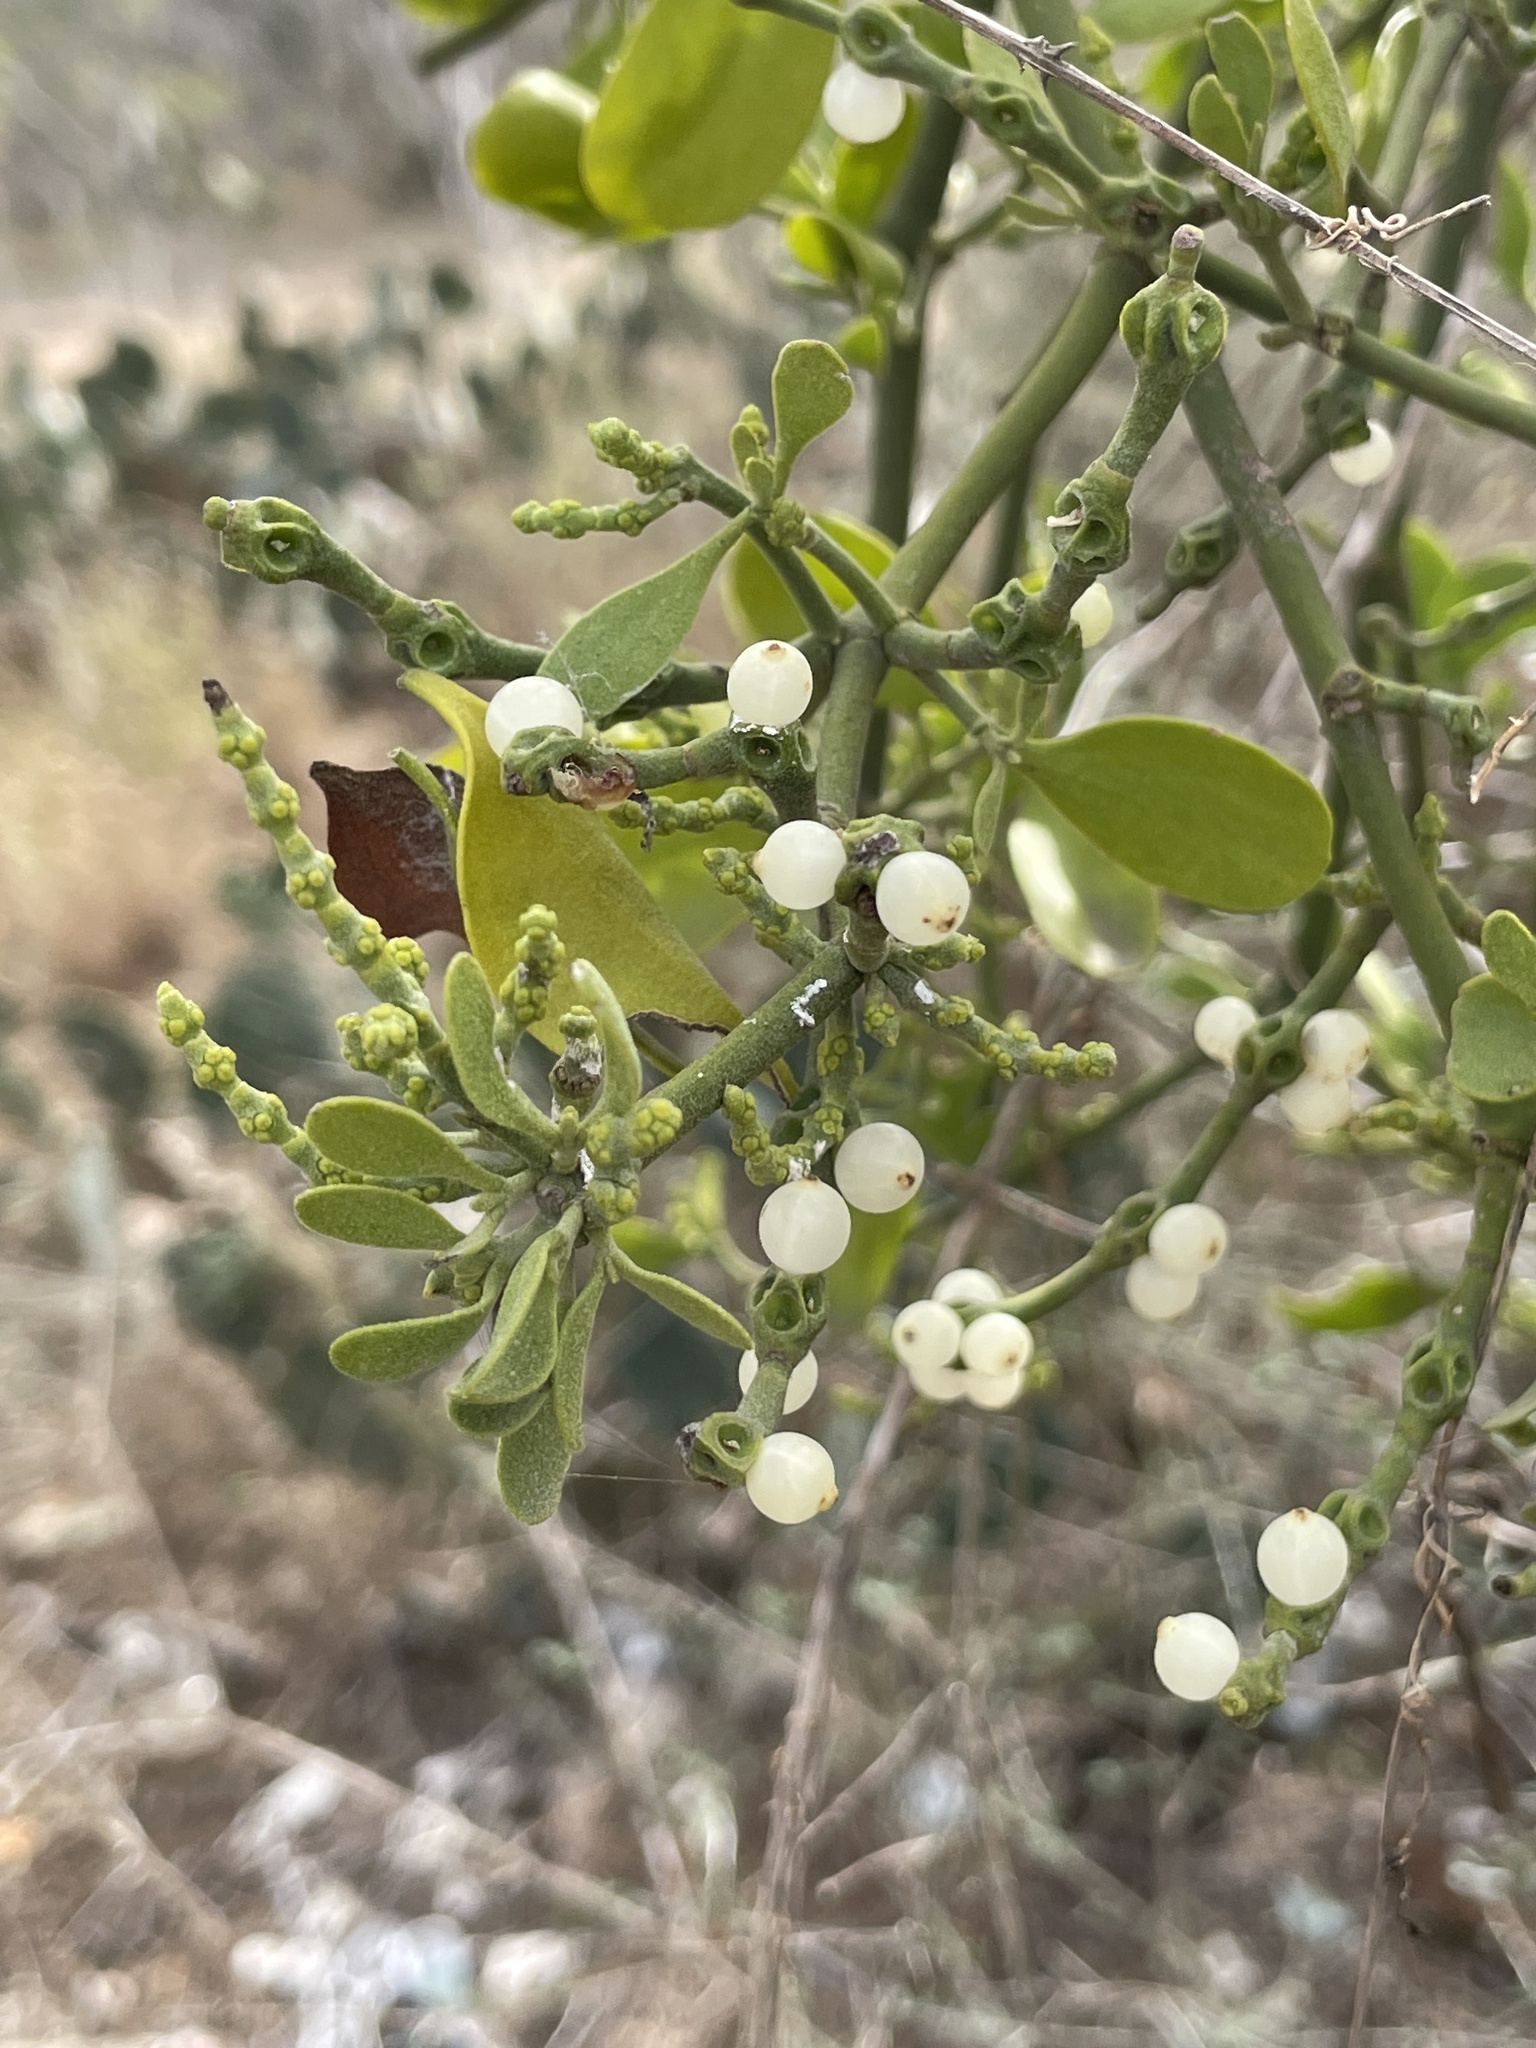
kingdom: Plantae
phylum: Tracheophyta
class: Magnoliopsida
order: Santalales
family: Viscaceae
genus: Phoradendron
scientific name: Phoradendron leucarpum
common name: Pacific mistletoe
